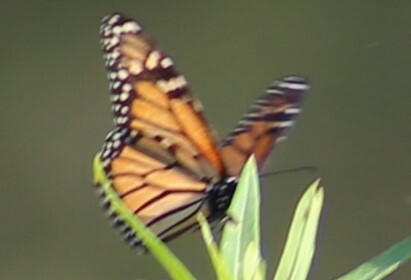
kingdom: Animalia
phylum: Arthropoda
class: Insecta
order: Lepidoptera
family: Nymphalidae
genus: Danaus
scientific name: Danaus plexippus
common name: Monarch
